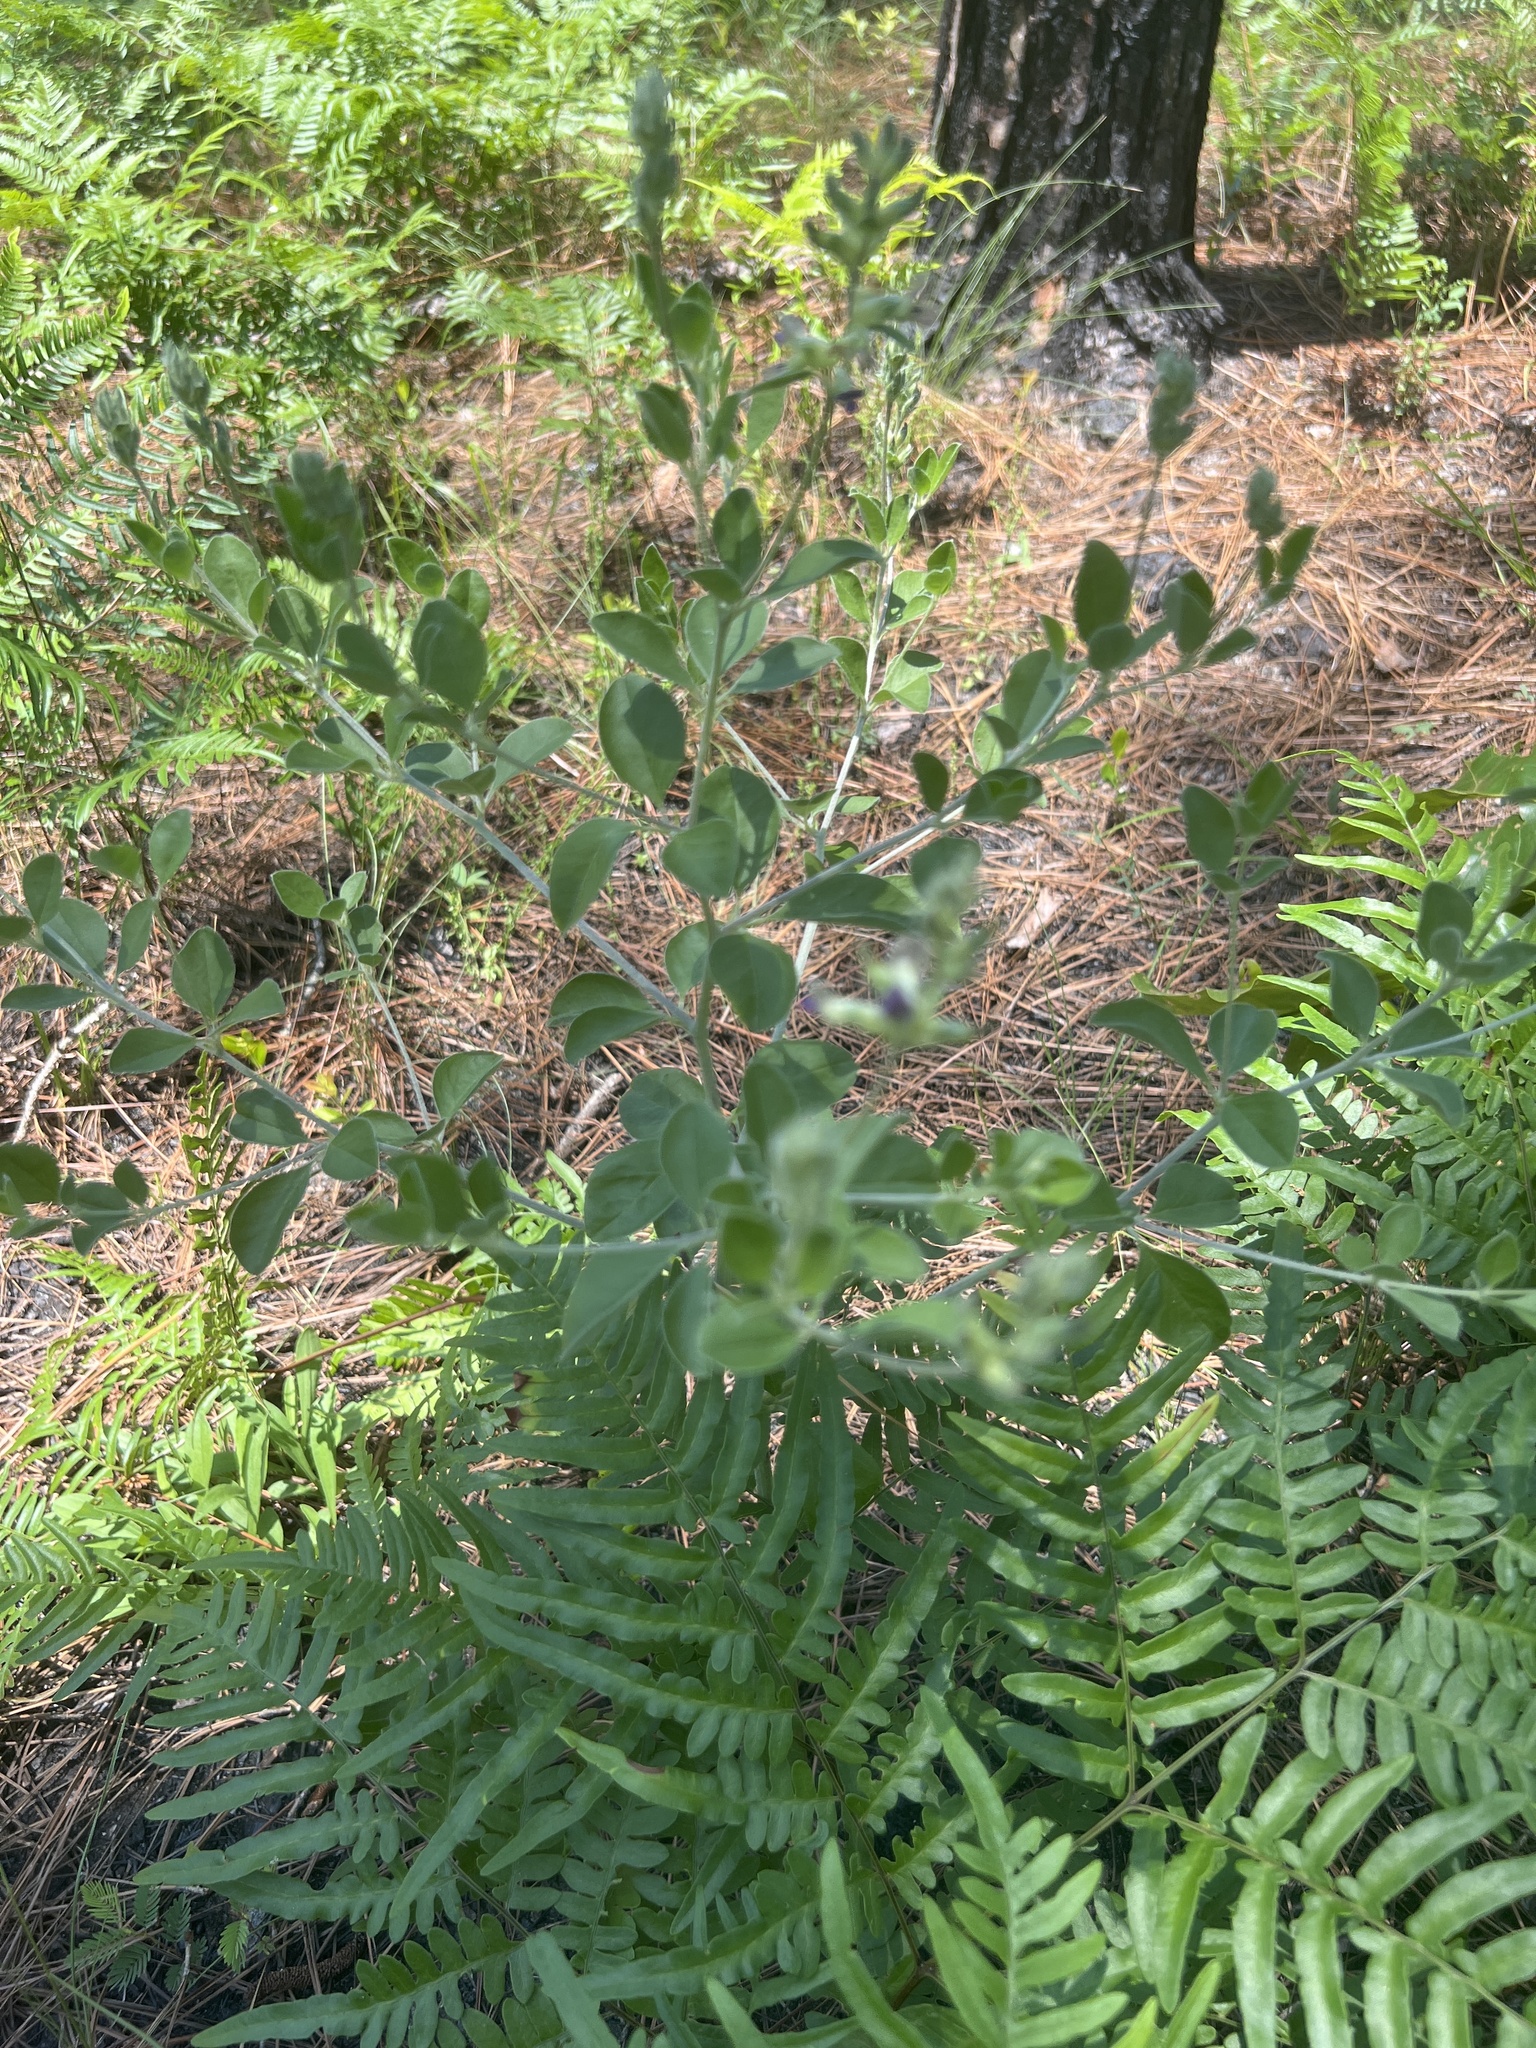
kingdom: Plantae
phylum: Tracheophyta
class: Magnoliopsida
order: Fabales
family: Fabaceae
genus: Pediomelum
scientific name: Pediomelum canescens
